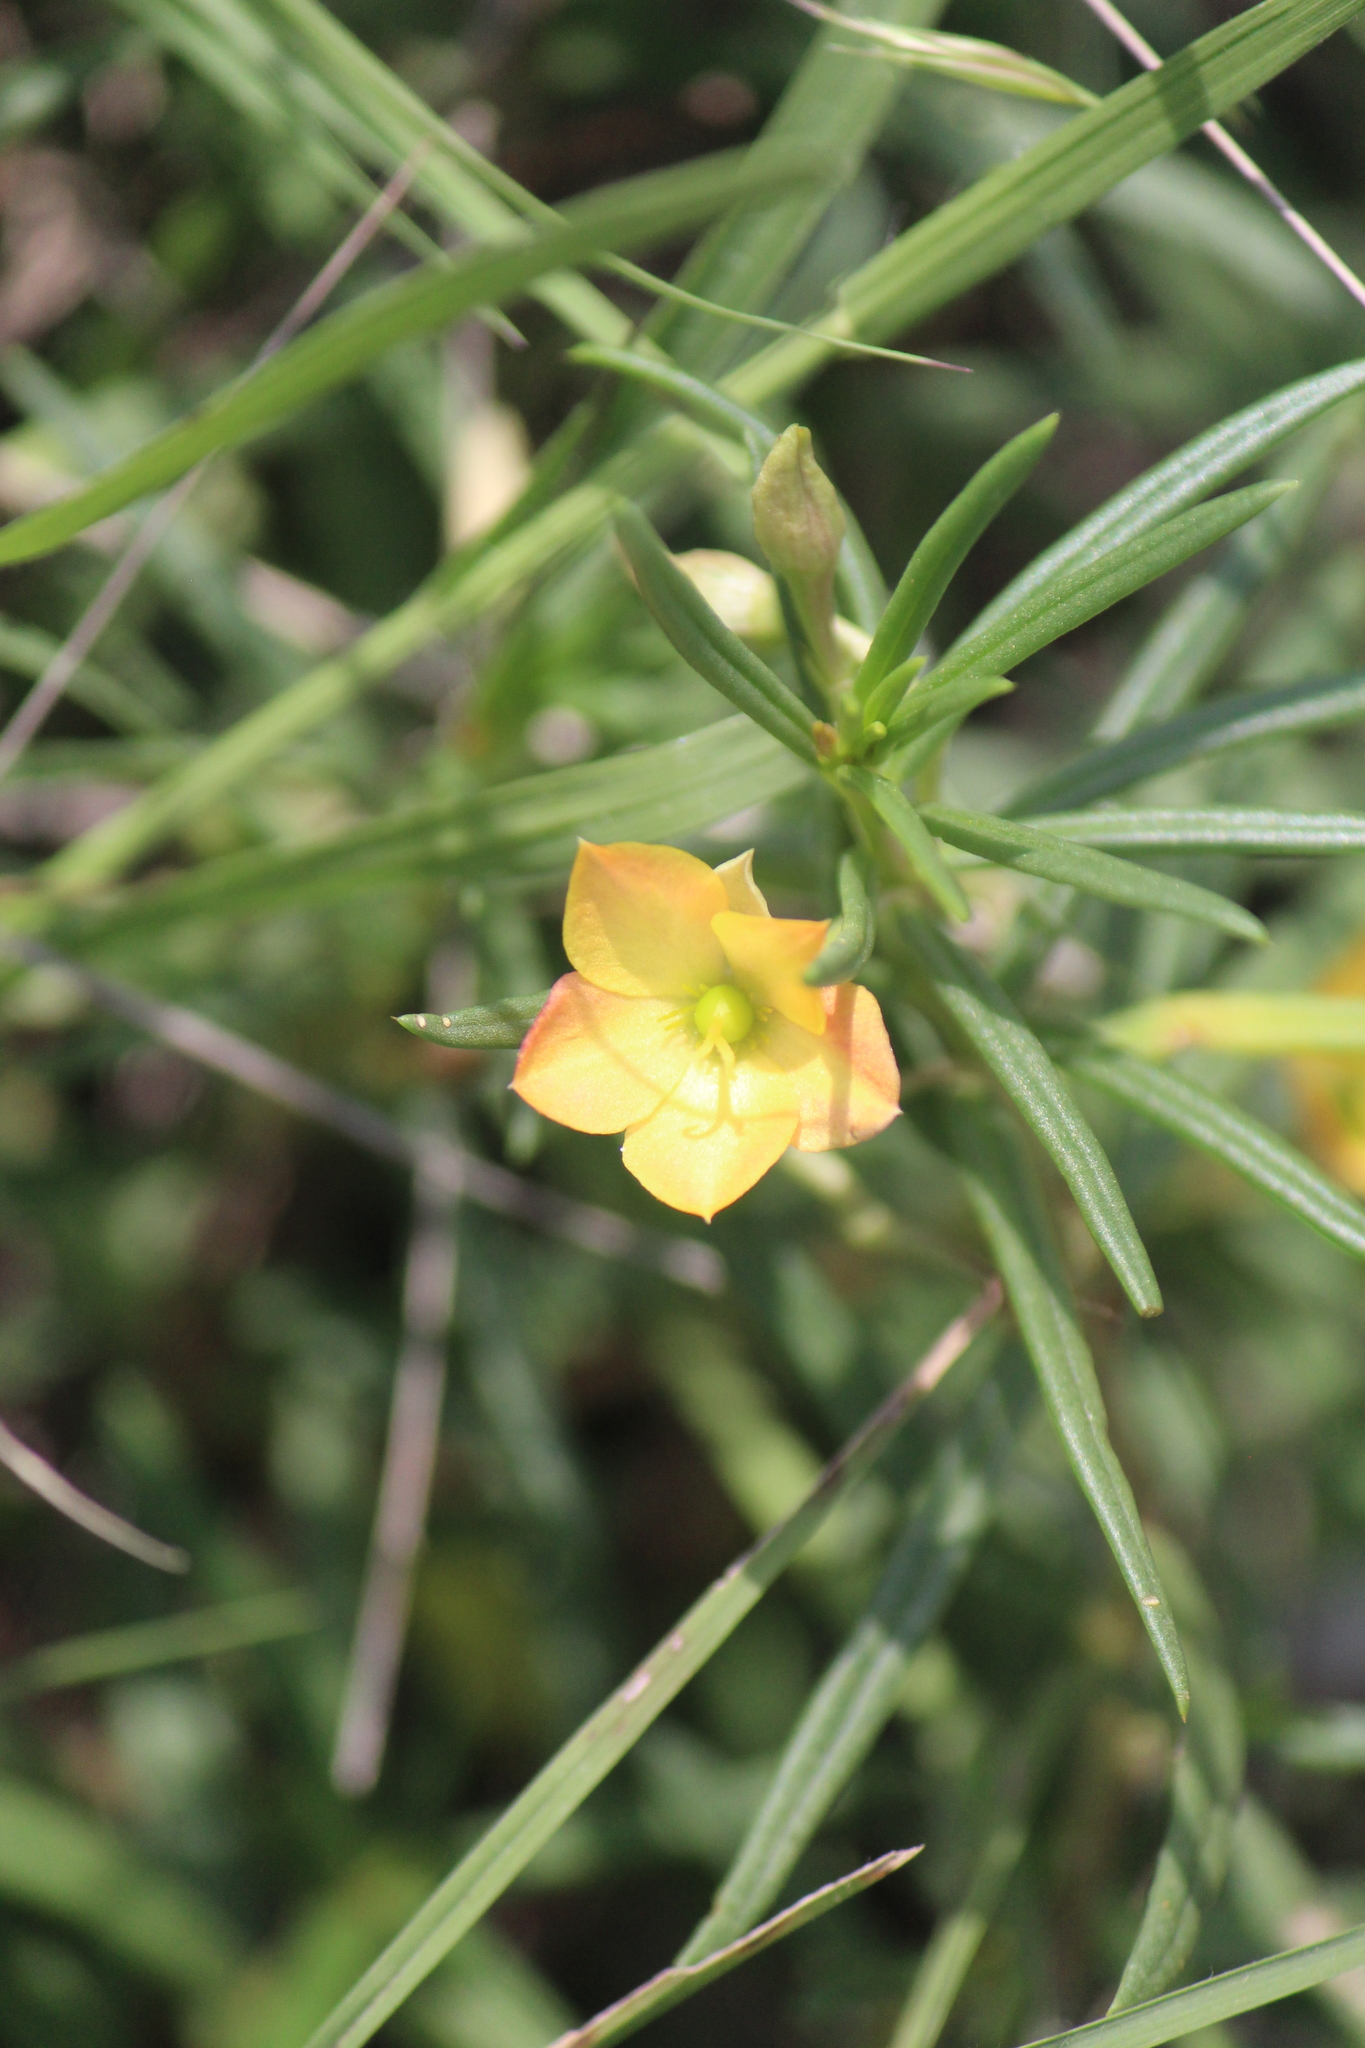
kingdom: Plantae
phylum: Tracheophyta
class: Magnoliopsida
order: Caryophyllales
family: Montiaceae
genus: Phemeranthus
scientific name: Phemeranthus aurantiacus
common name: Orange fameflower
